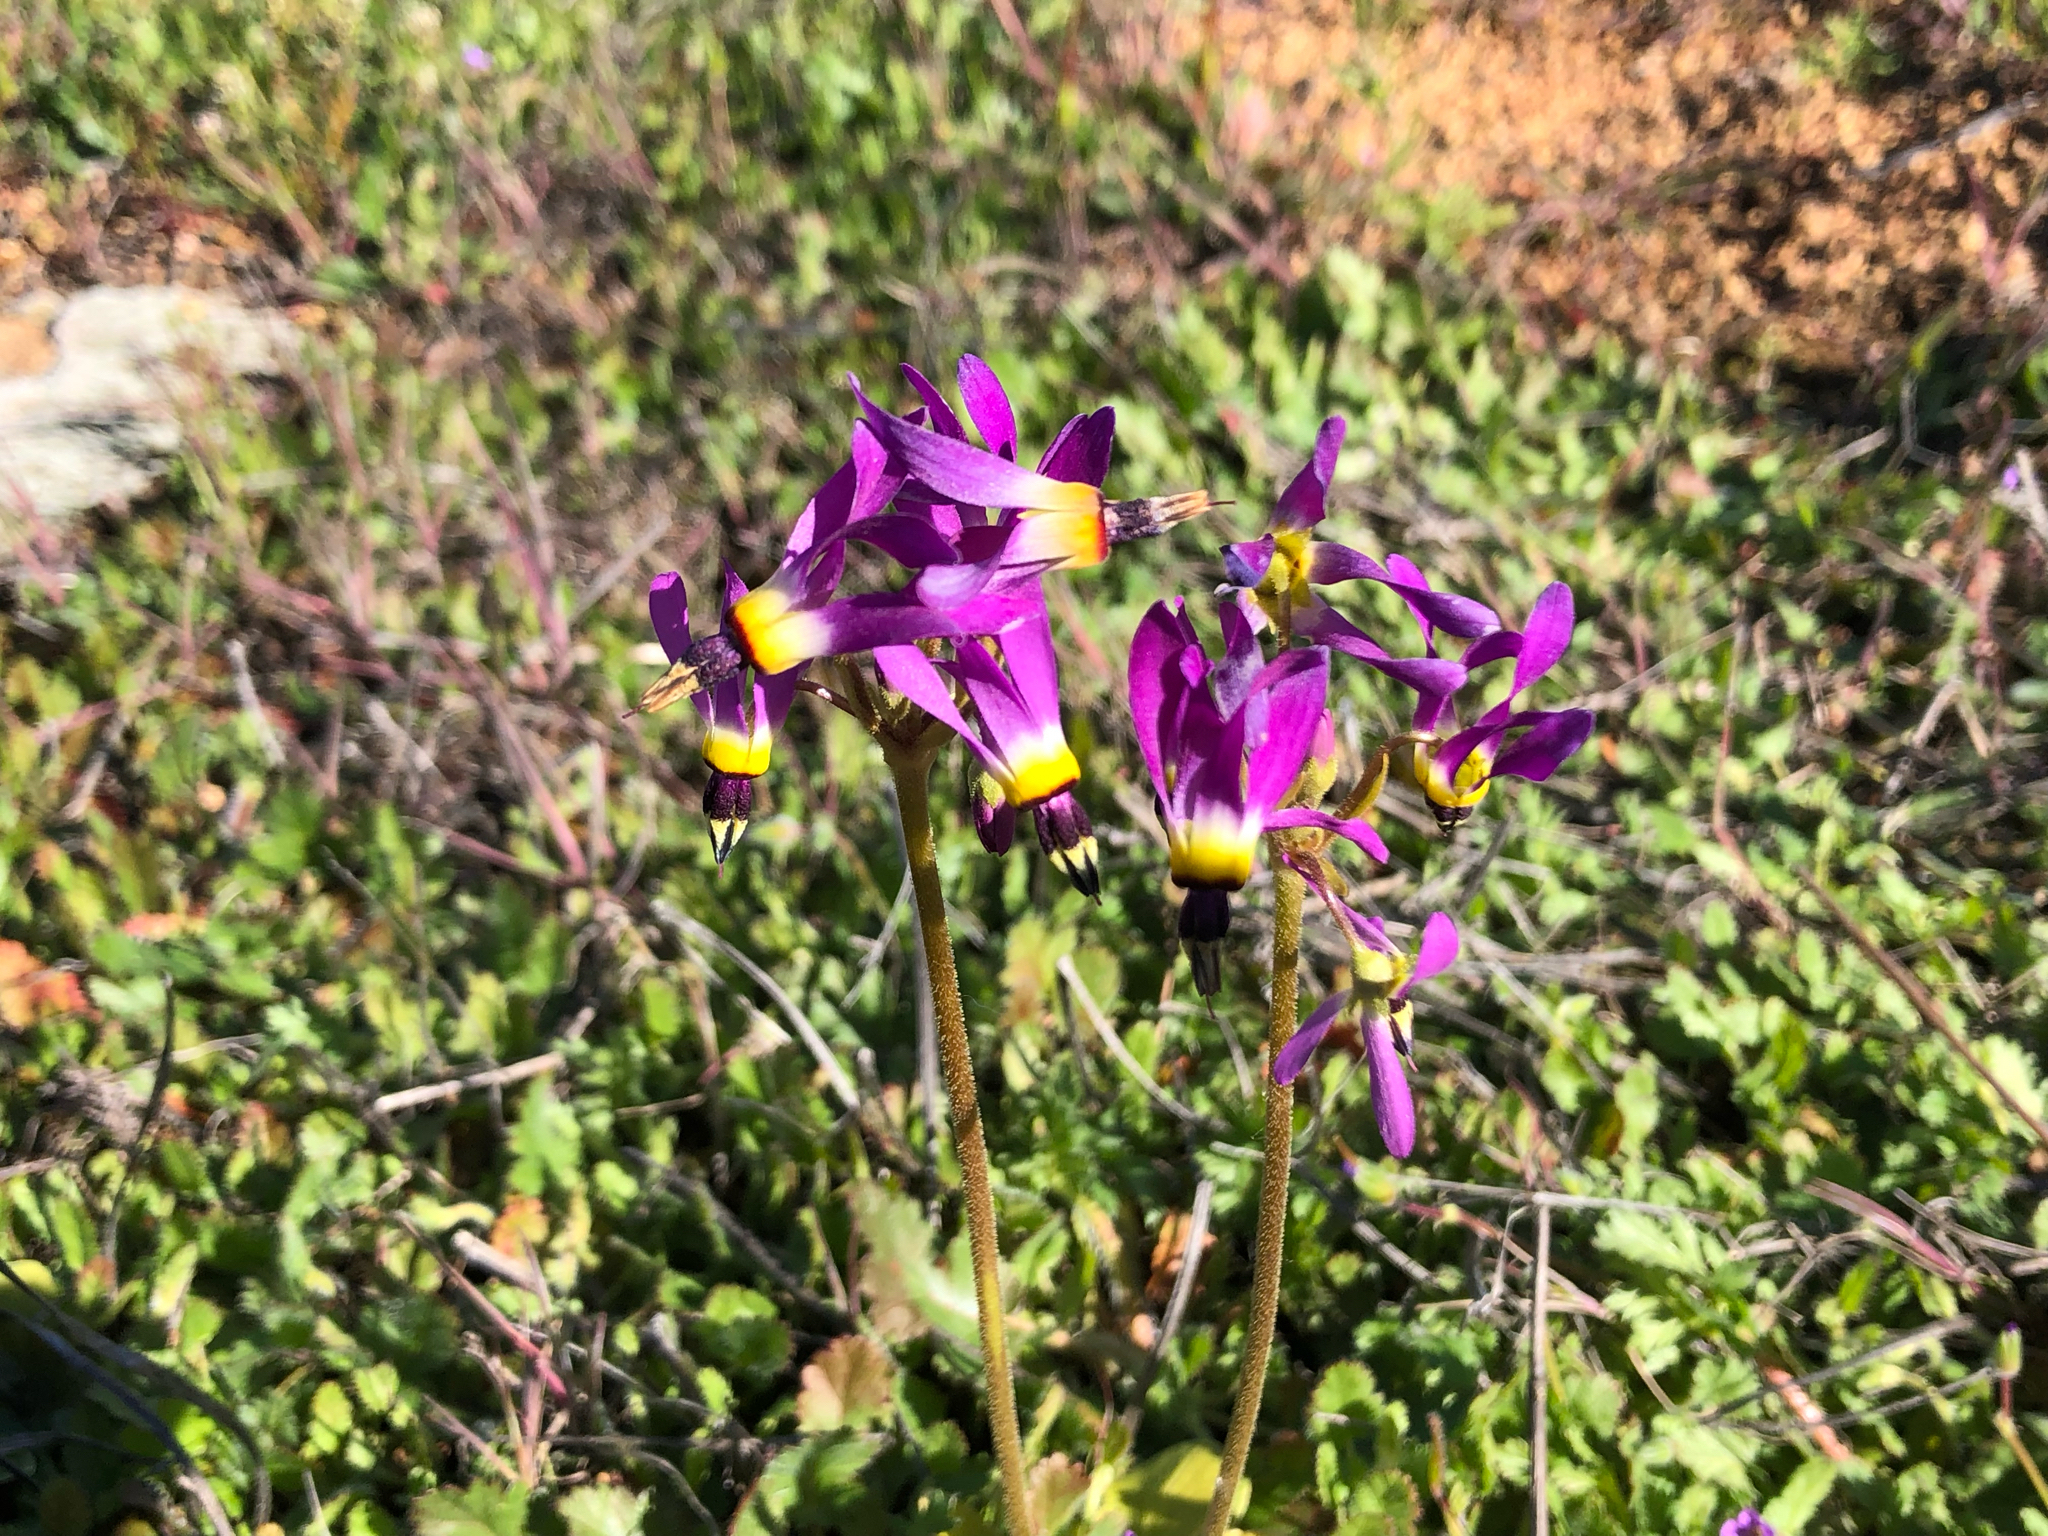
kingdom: Plantae
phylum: Tracheophyta
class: Magnoliopsida
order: Ericales
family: Primulaceae
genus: Dodecatheon
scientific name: Dodecatheon clevelandii
